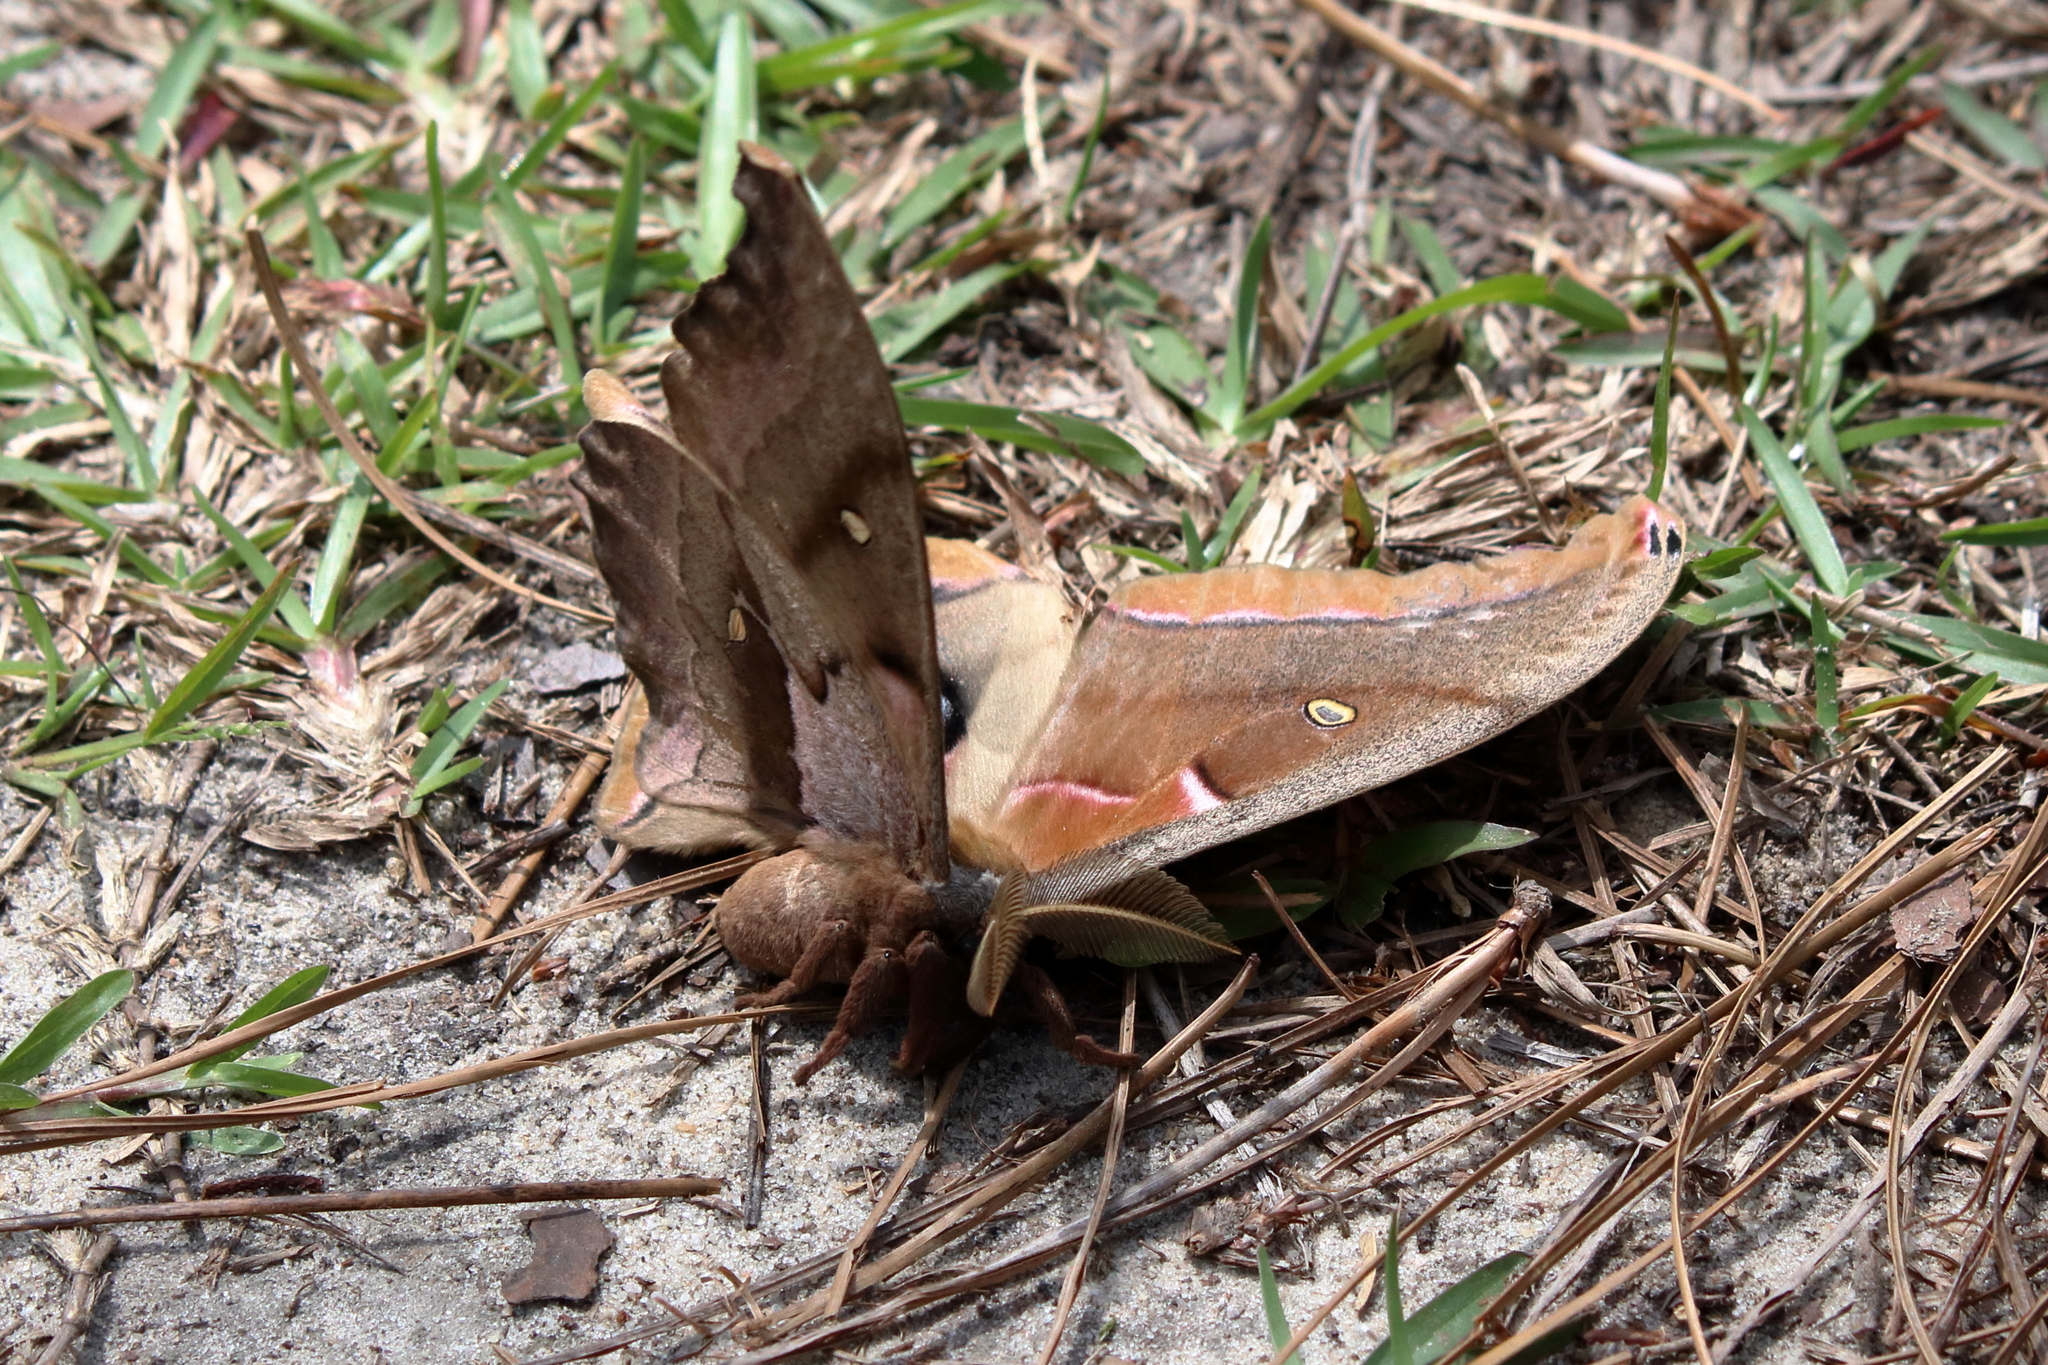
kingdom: Animalia
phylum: Arthropoda
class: Insecta
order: Lepidoptera
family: Saturniidae
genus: Antheraea
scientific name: Antheraea polyphemus
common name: Polyphemus moth
